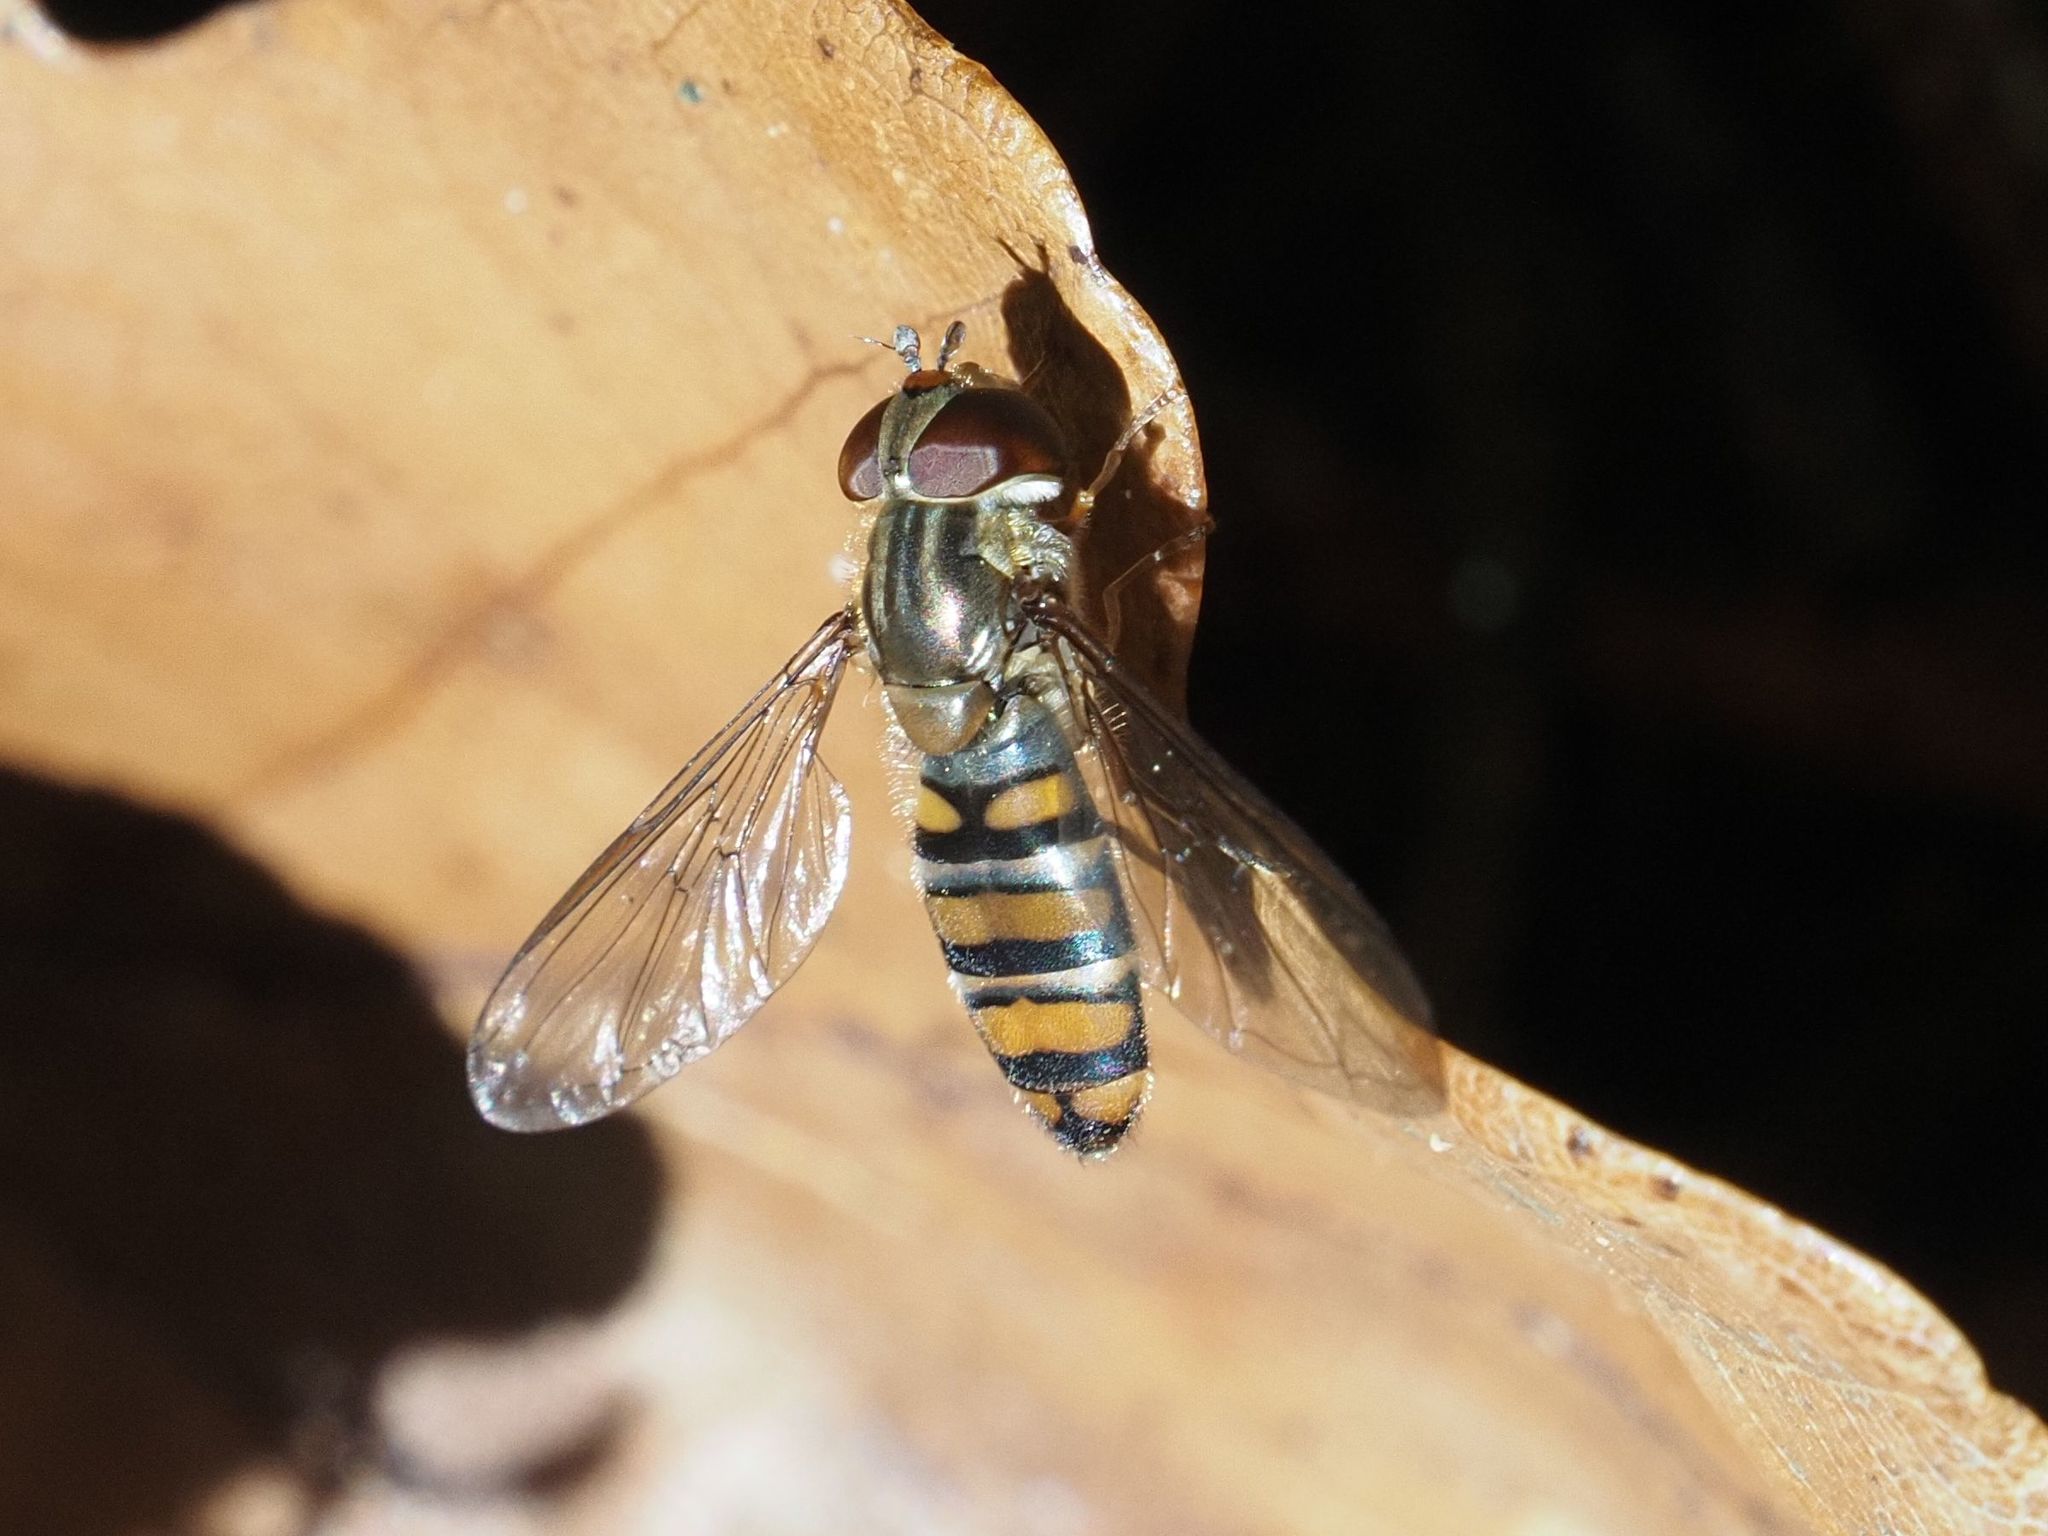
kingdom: Animalia
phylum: Arthropoda
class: Insecta
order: Diptera
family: Syrphidae
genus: Episyrphus
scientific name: Episyrphus balteatus
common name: Marmalade hoverfly
